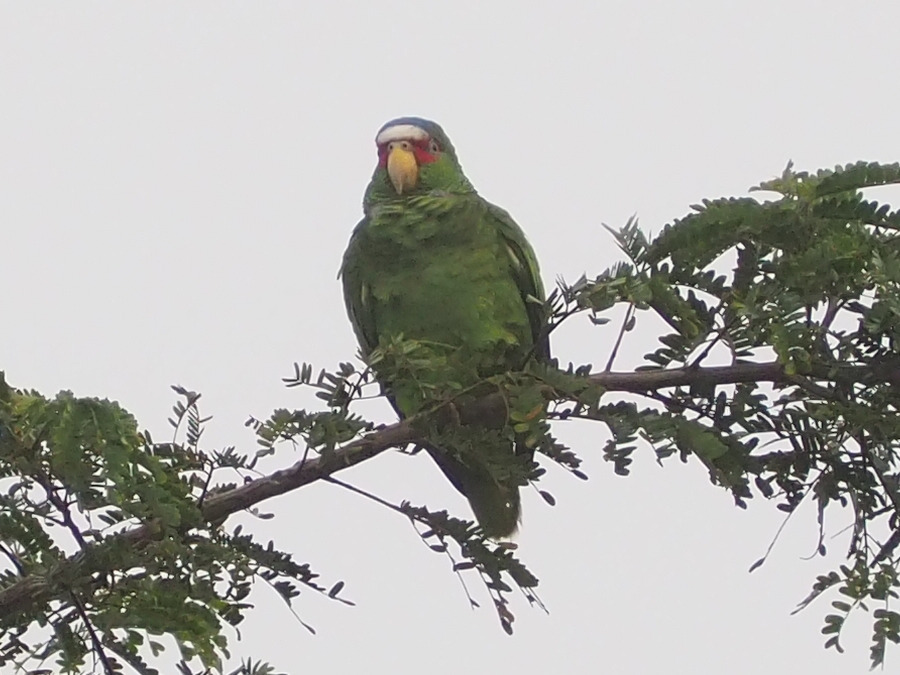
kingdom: Animalia
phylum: Chordata
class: Aves
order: Psittaciformes
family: Psittacidae
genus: Amazona
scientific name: Amazona albifrons
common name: White-fronted amazon
